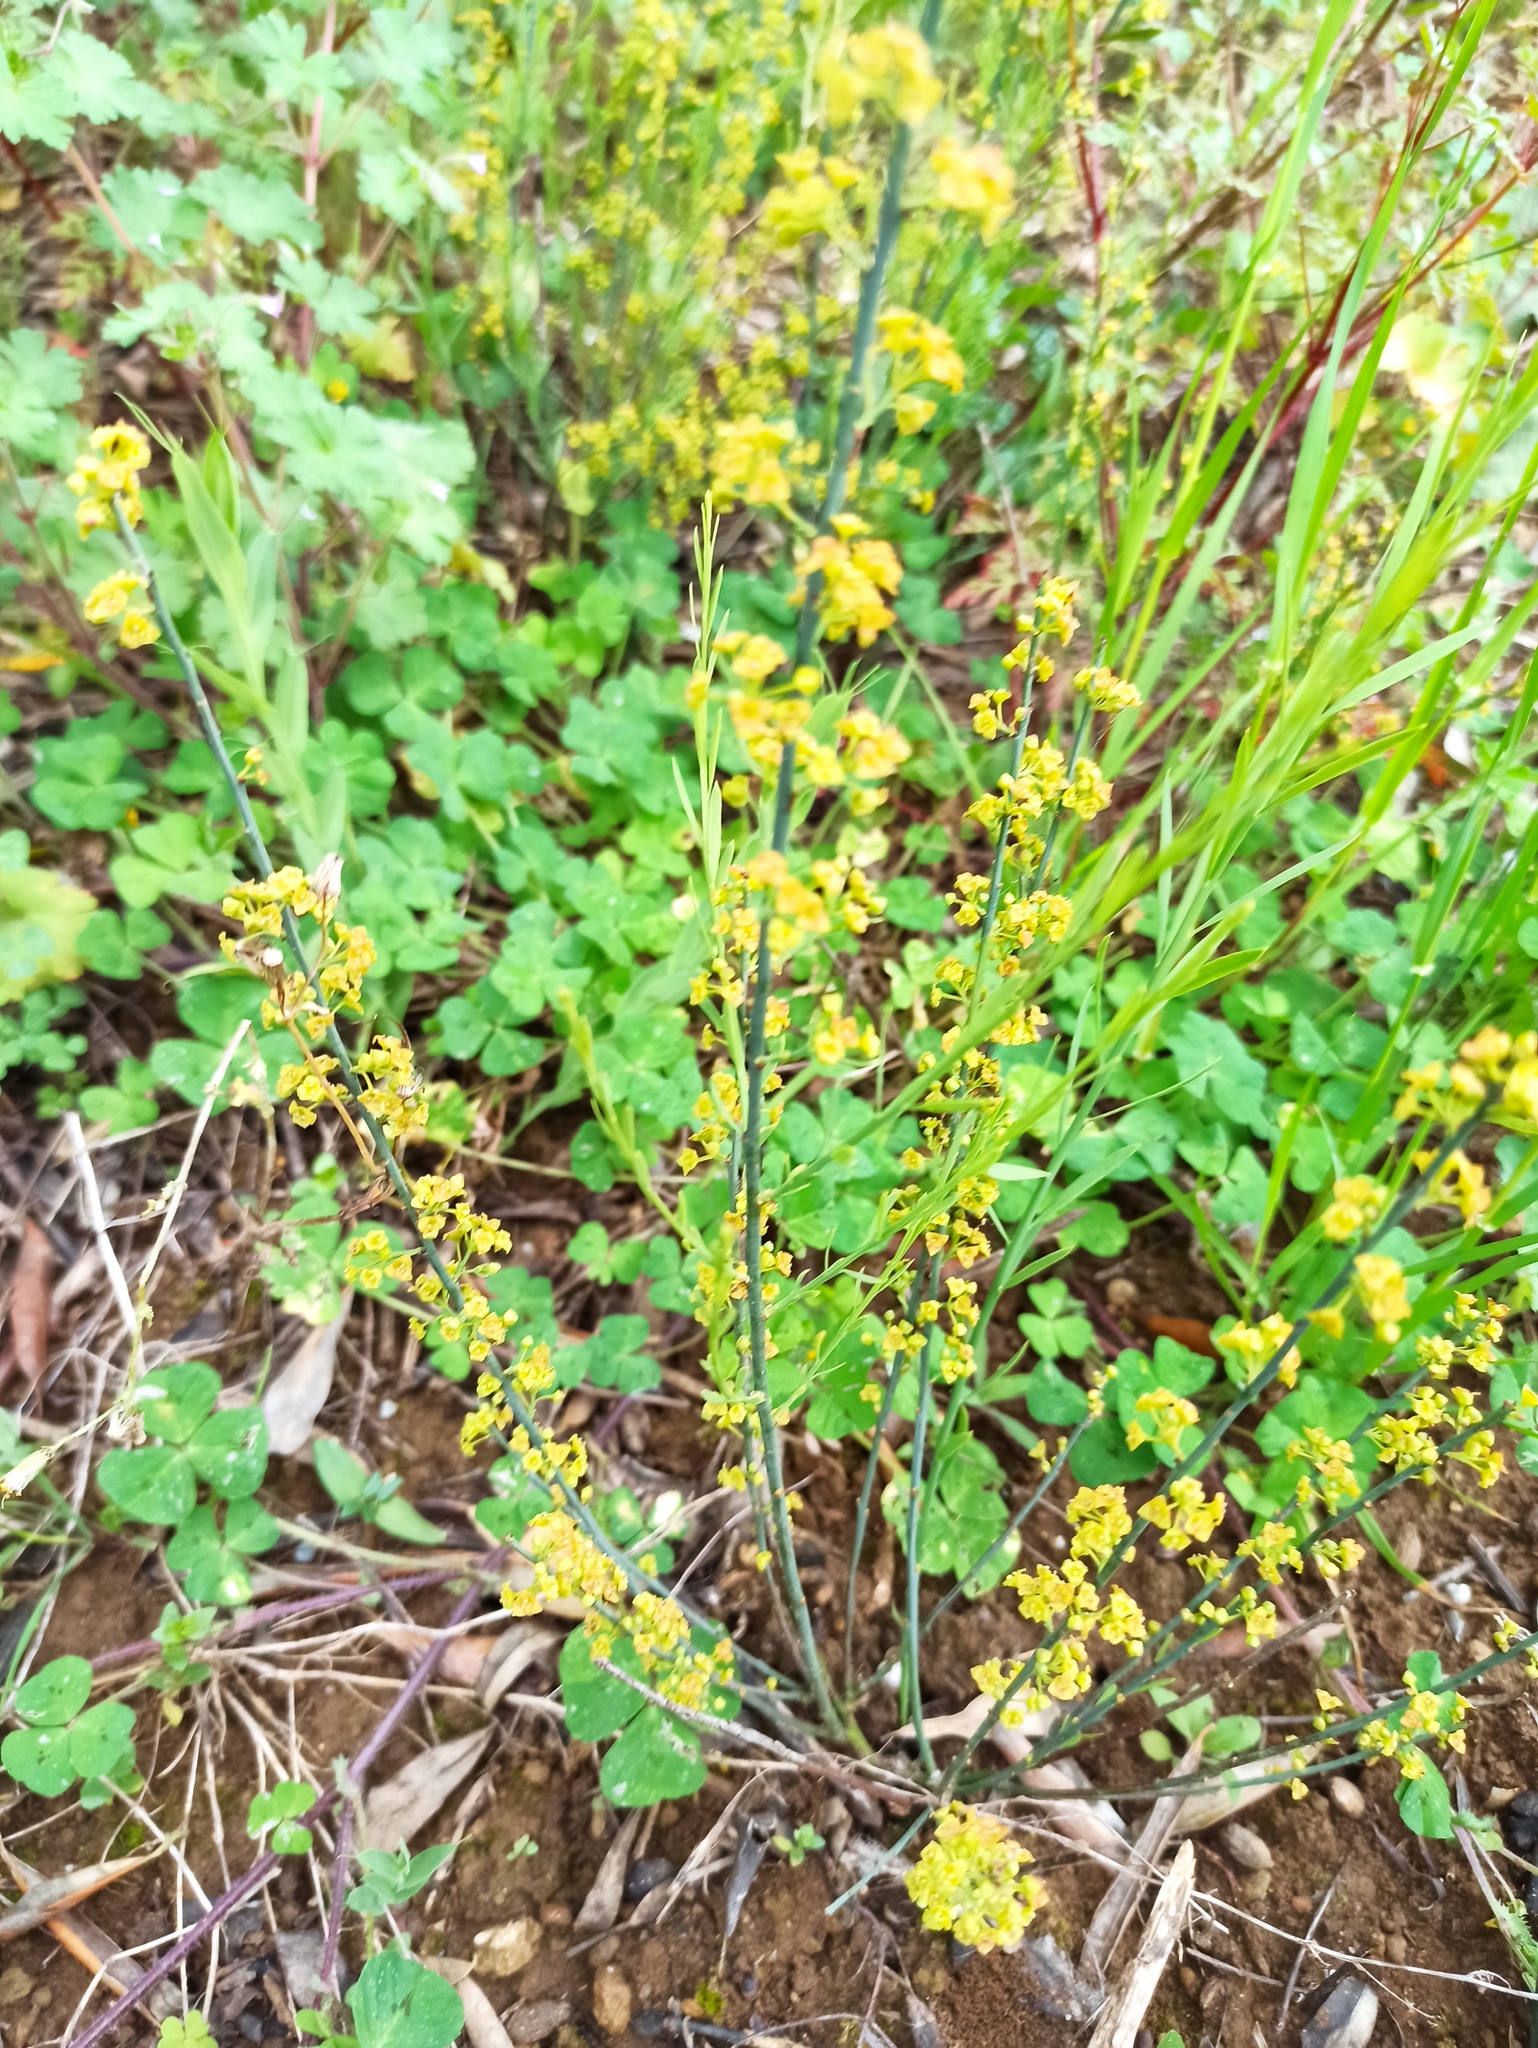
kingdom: Plantae
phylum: Tracheophyta
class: Magnoliopsida
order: Santalales
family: Santalaceae
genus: Osyris
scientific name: Osyris alba
